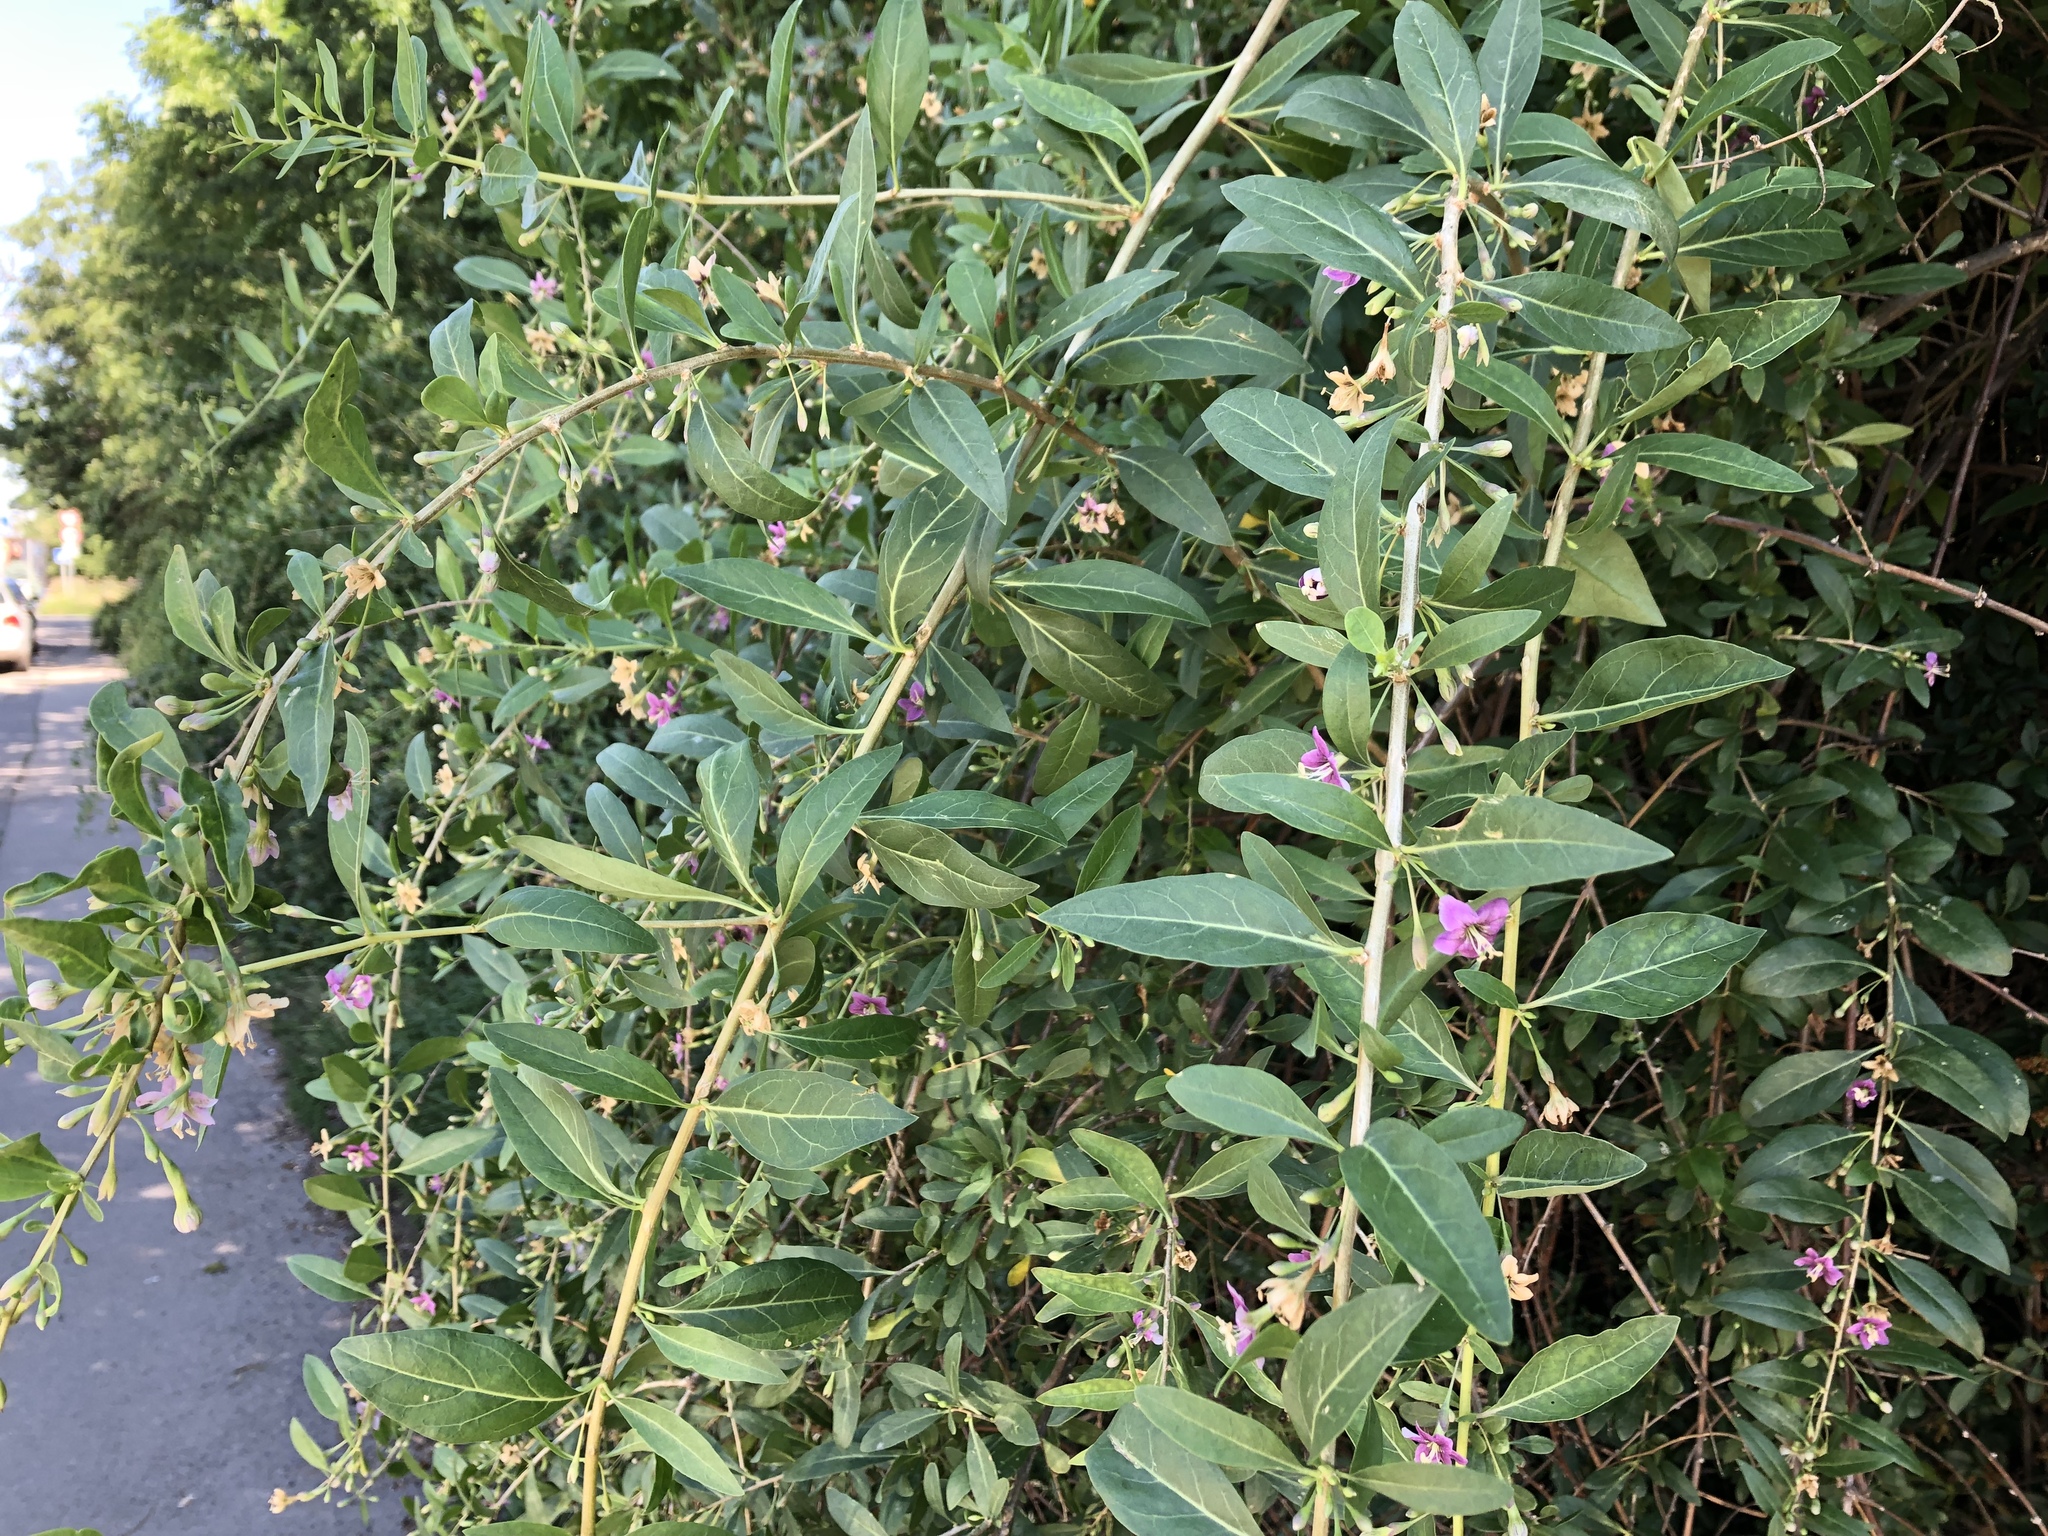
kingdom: Plantae
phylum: Tracheophyta
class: Magnoliopsida
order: Solanales
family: Solanaceae
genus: Lycium
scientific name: Lycium barbarum
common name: Duke of argyll's teaplant
